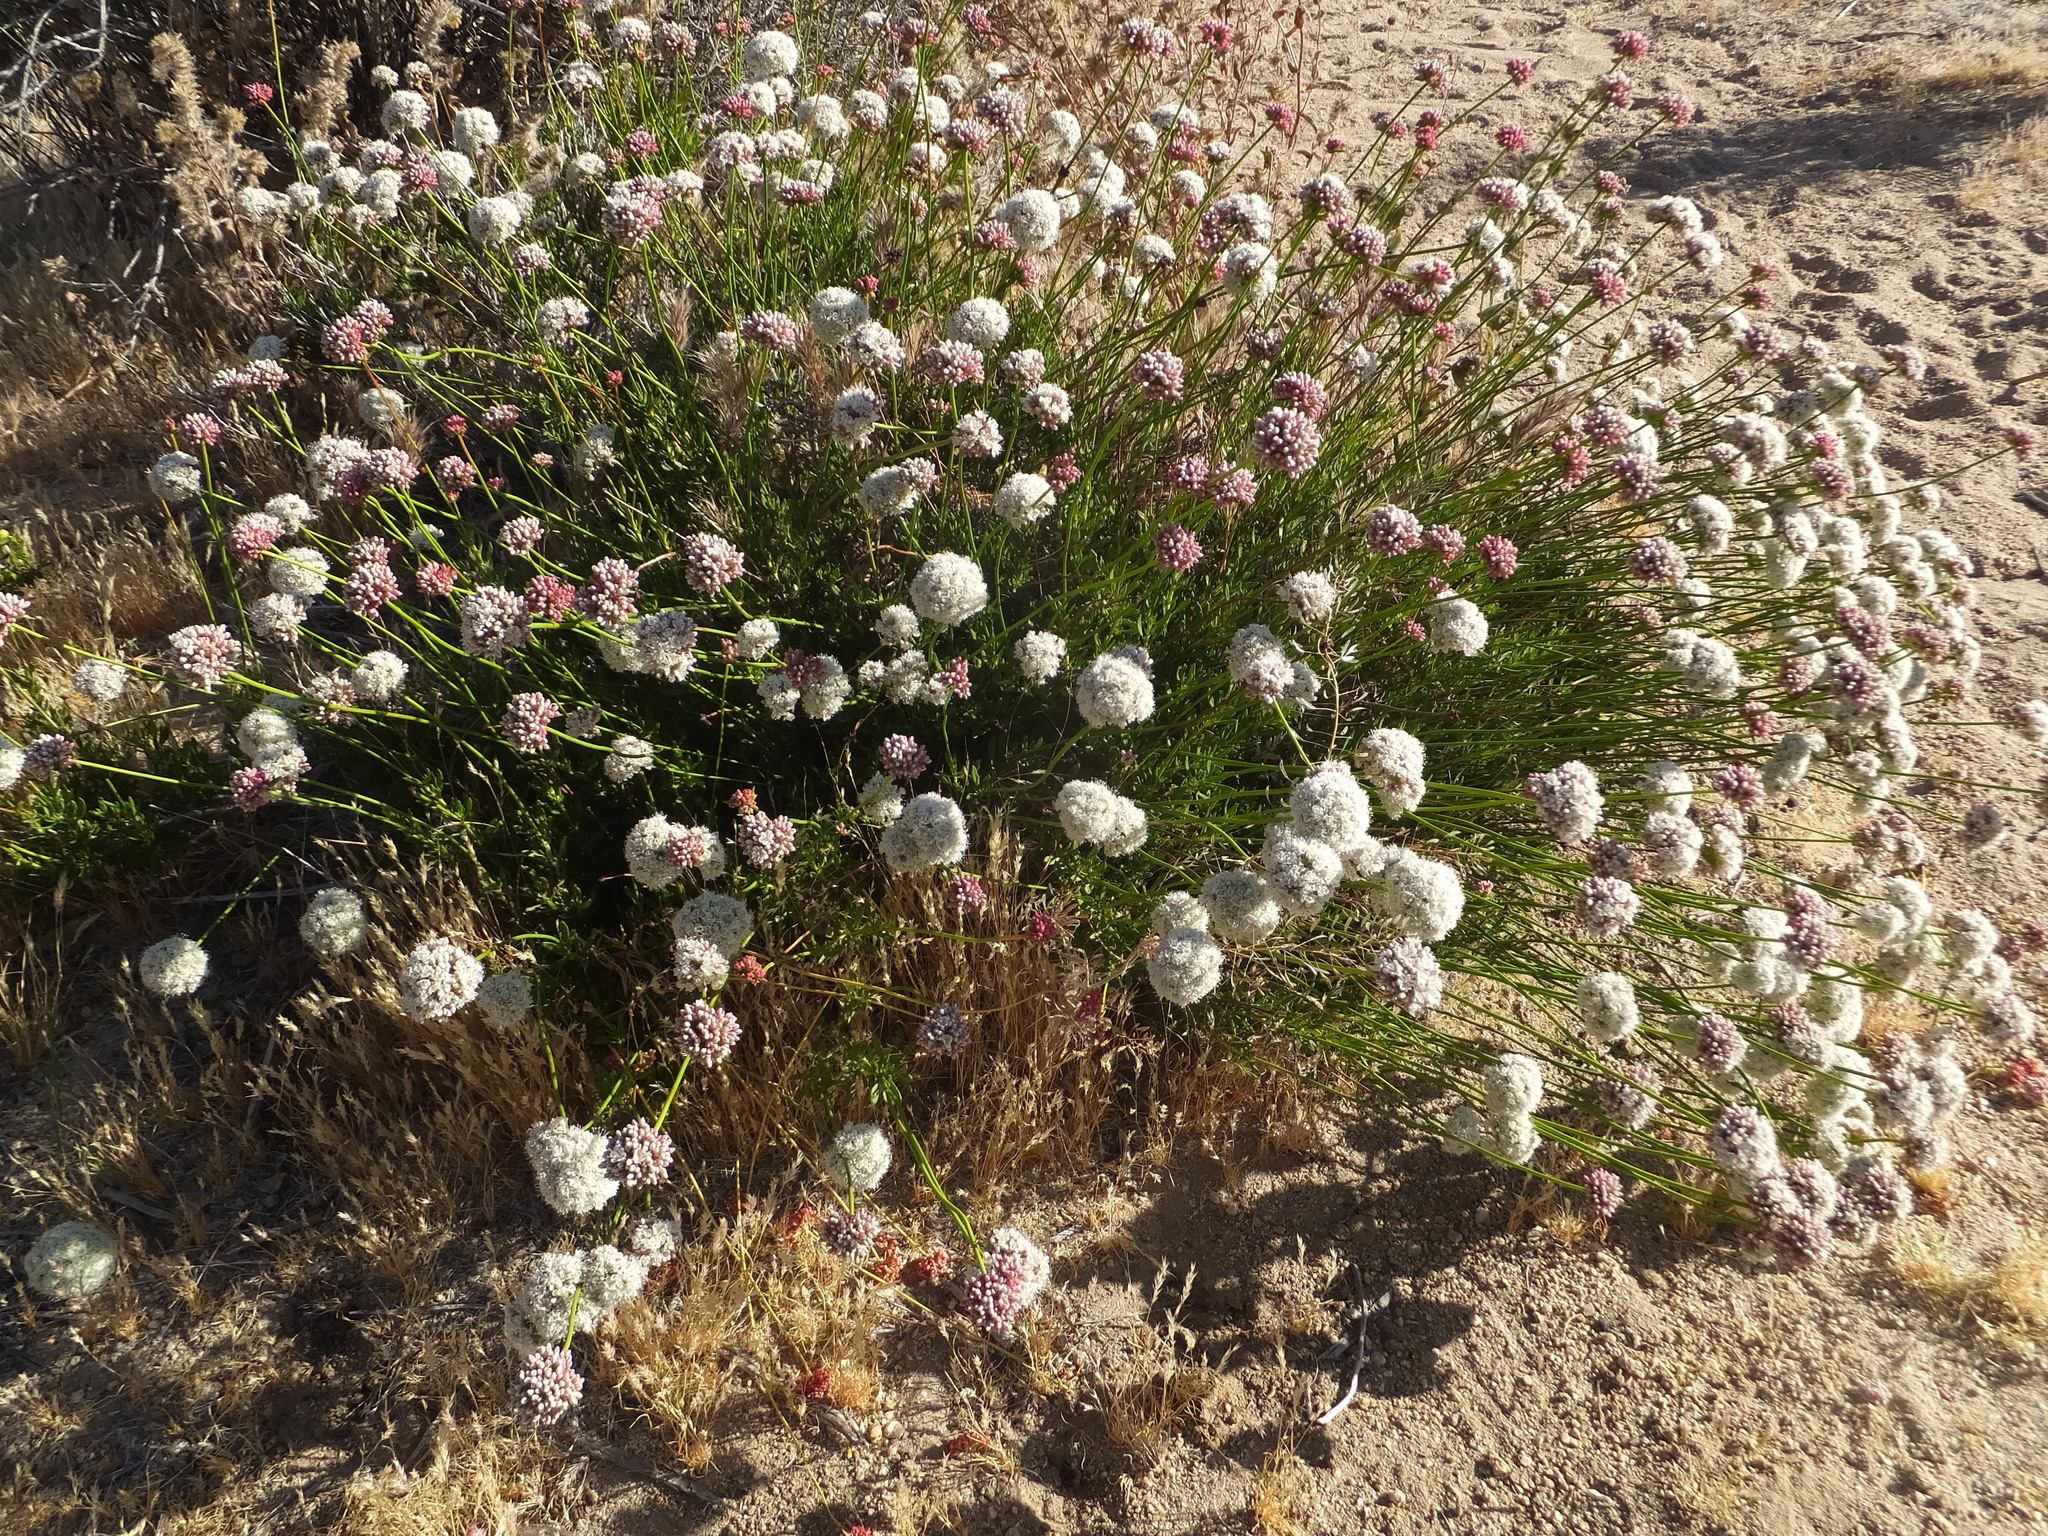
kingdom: Plantae
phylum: Tracheophyta
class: Magnoliopsida
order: Caryophyllales
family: Polygonaceae
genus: Eriogonum
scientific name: Eriogonum fasciculatum
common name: California wild buckwheat
